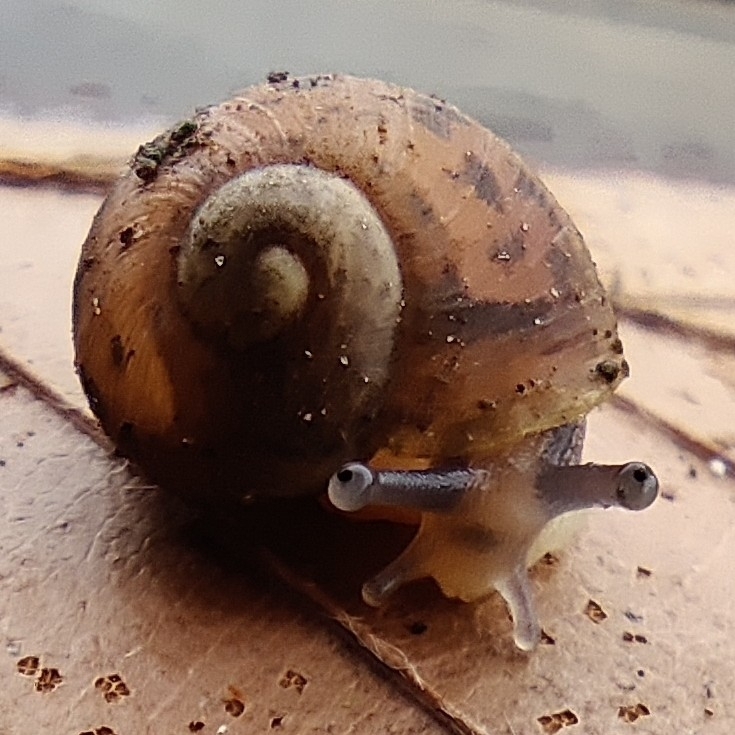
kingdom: Animalia
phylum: Mollusca
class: Gastropoda
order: Stylommatophora
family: Helicidae
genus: Cornu
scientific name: Cornu aspersum
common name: Brown garden snail
